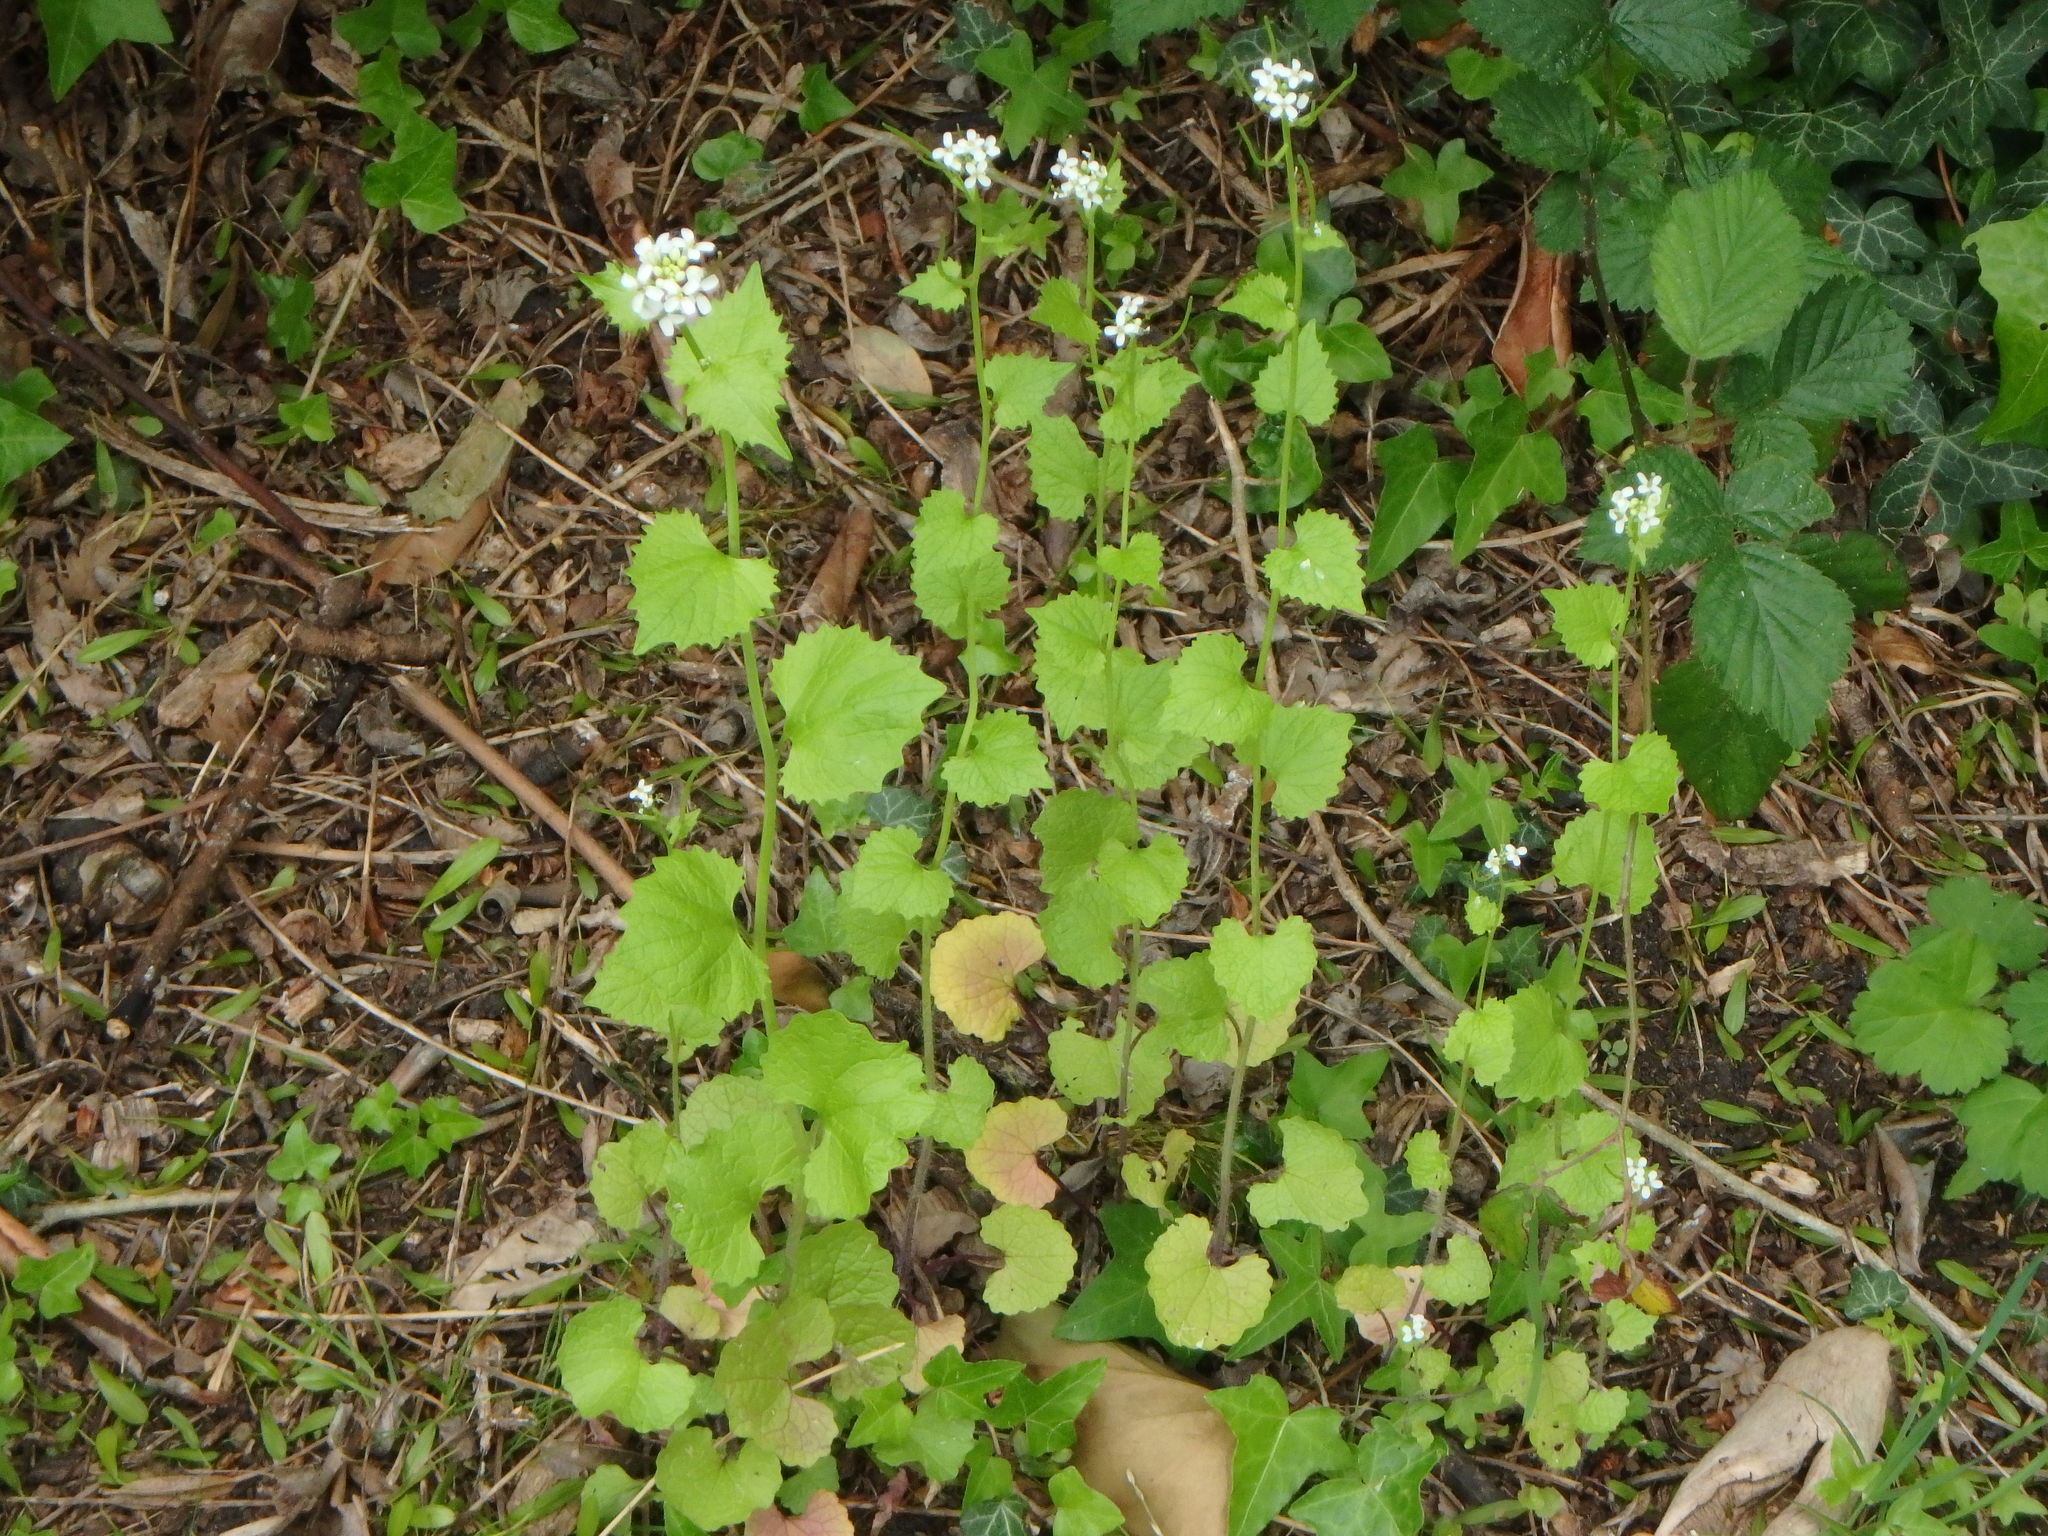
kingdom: Plantae
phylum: Tracheophyta
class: Magnoliopsida
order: Brassicales
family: Brassicaceae
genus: Alliaria
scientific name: Alliaria petiolata
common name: Garlic mustard
